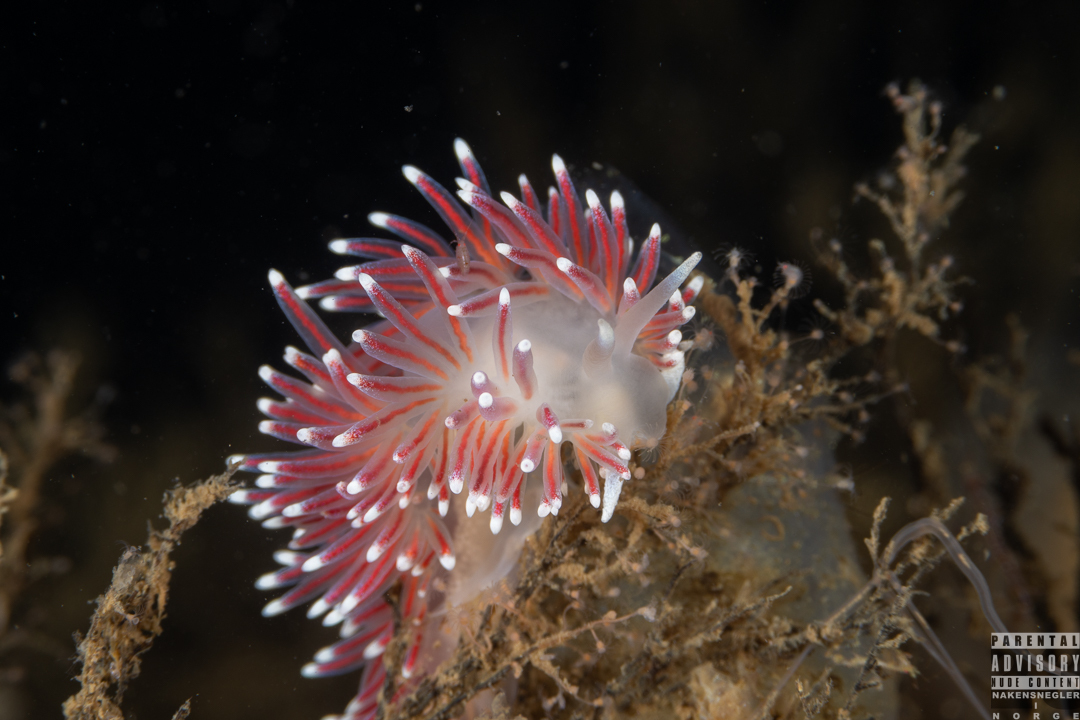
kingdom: Animalia
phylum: Mollusca
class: Gastropoda
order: Nudibranchia
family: Flabellinidae
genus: Carronella
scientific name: Carronella pellucida
